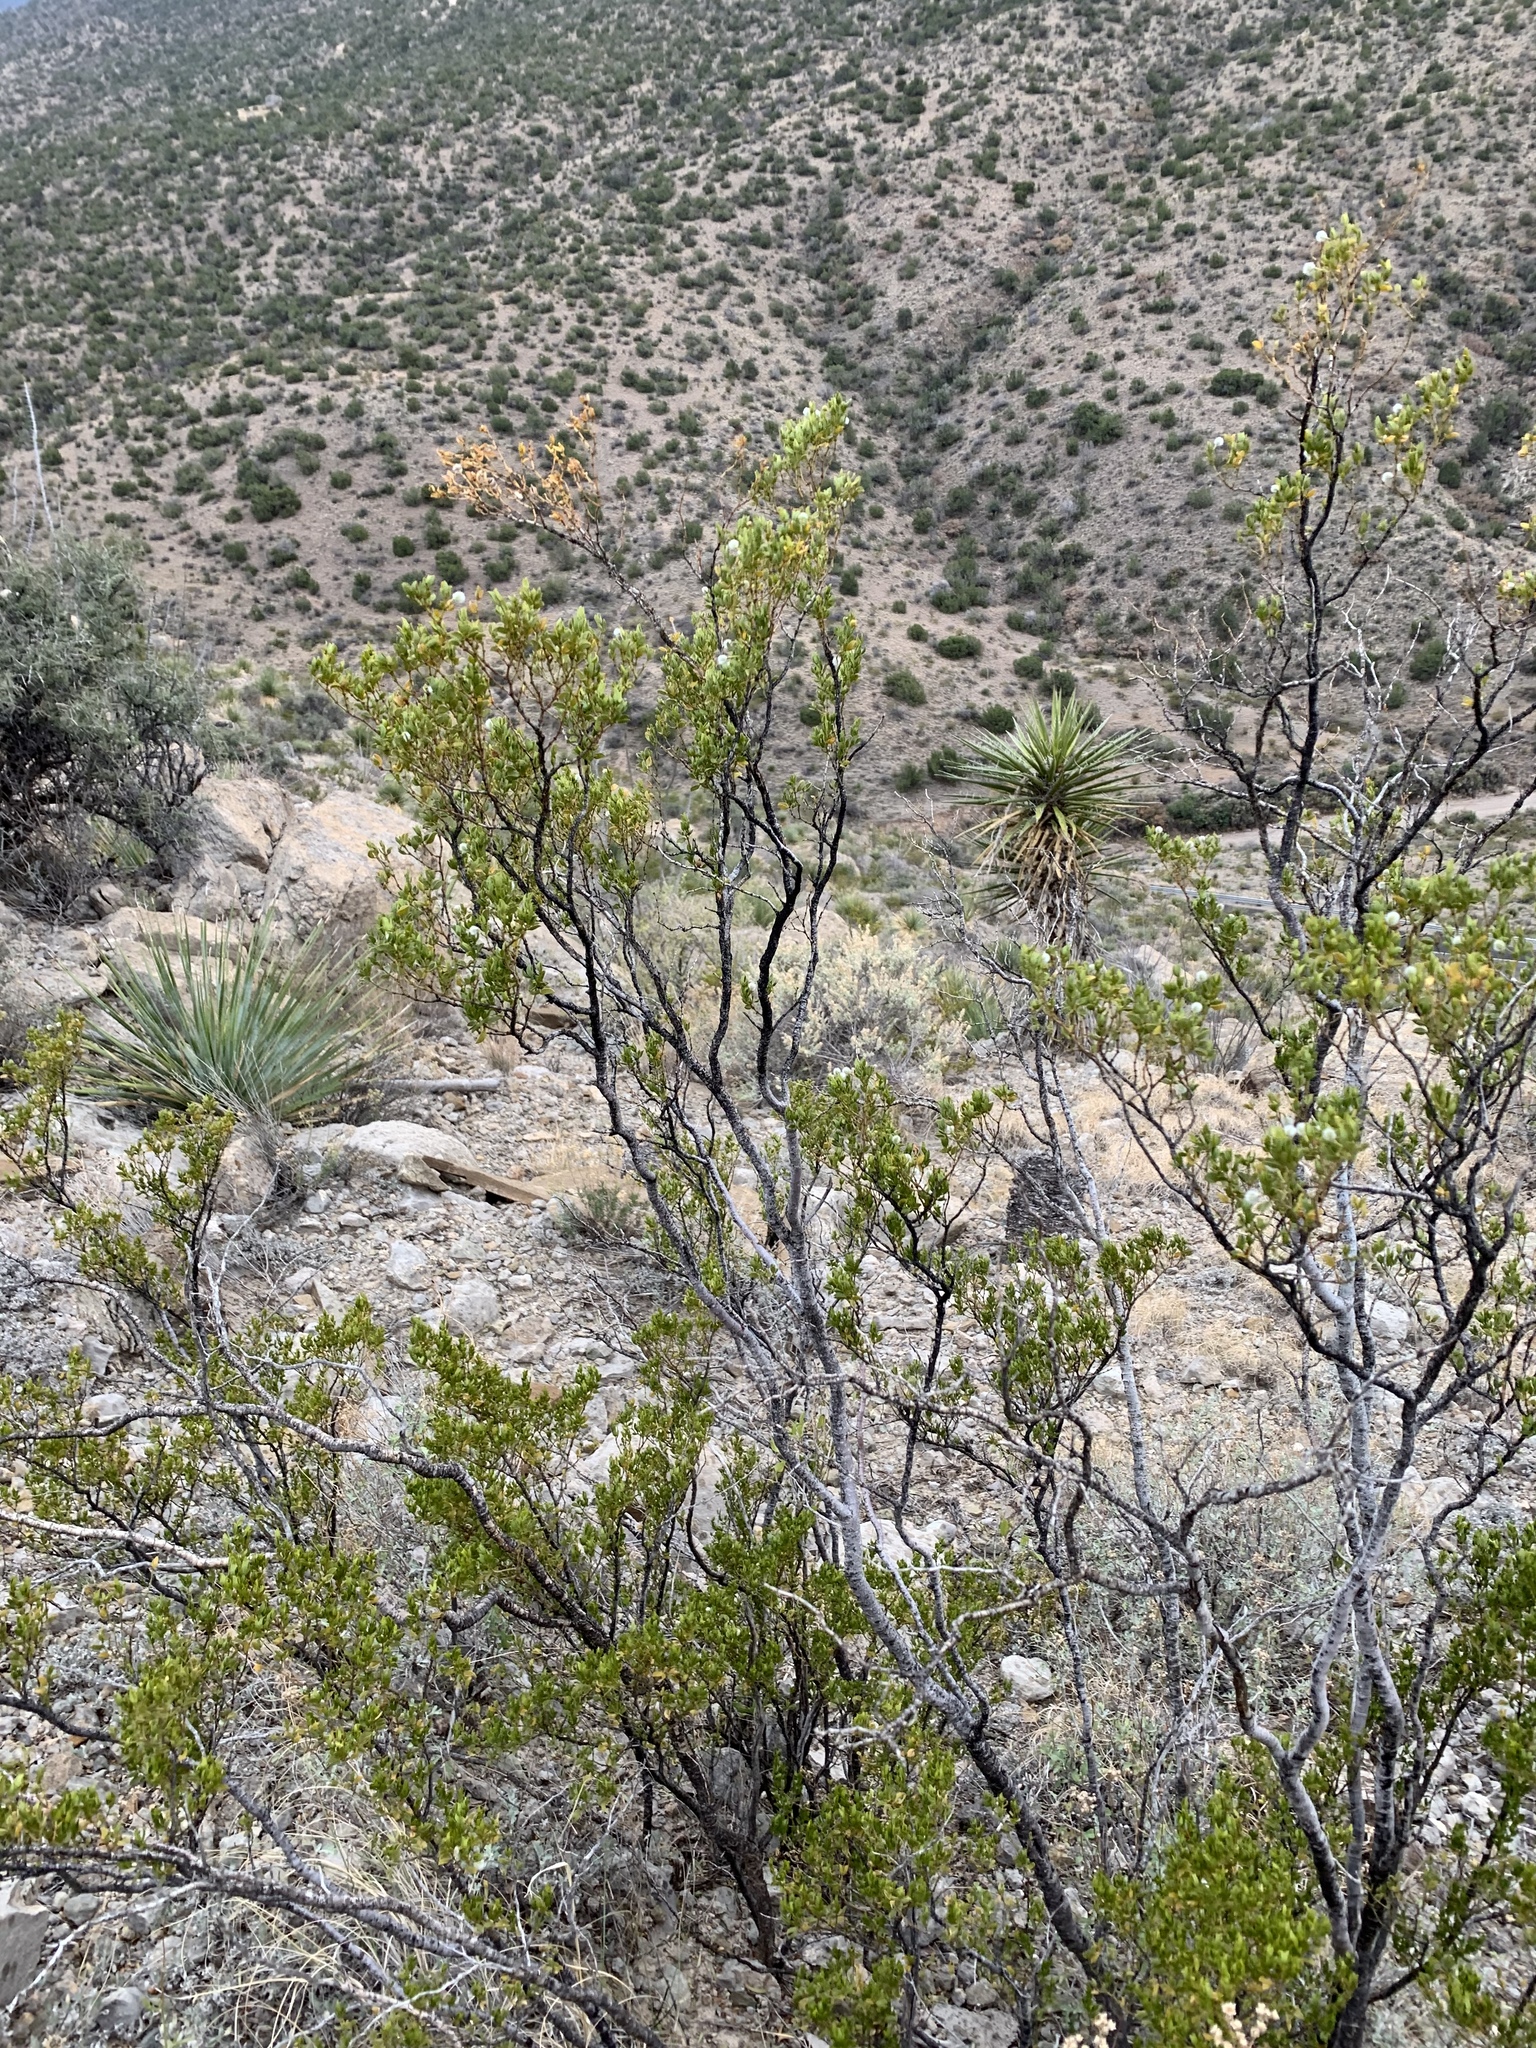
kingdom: Plantae
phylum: Tracheophyta
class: Magnoliopsida
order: Zygophyllales
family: Zygophyllaceae
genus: Larrea
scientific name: Larrea tridentata
